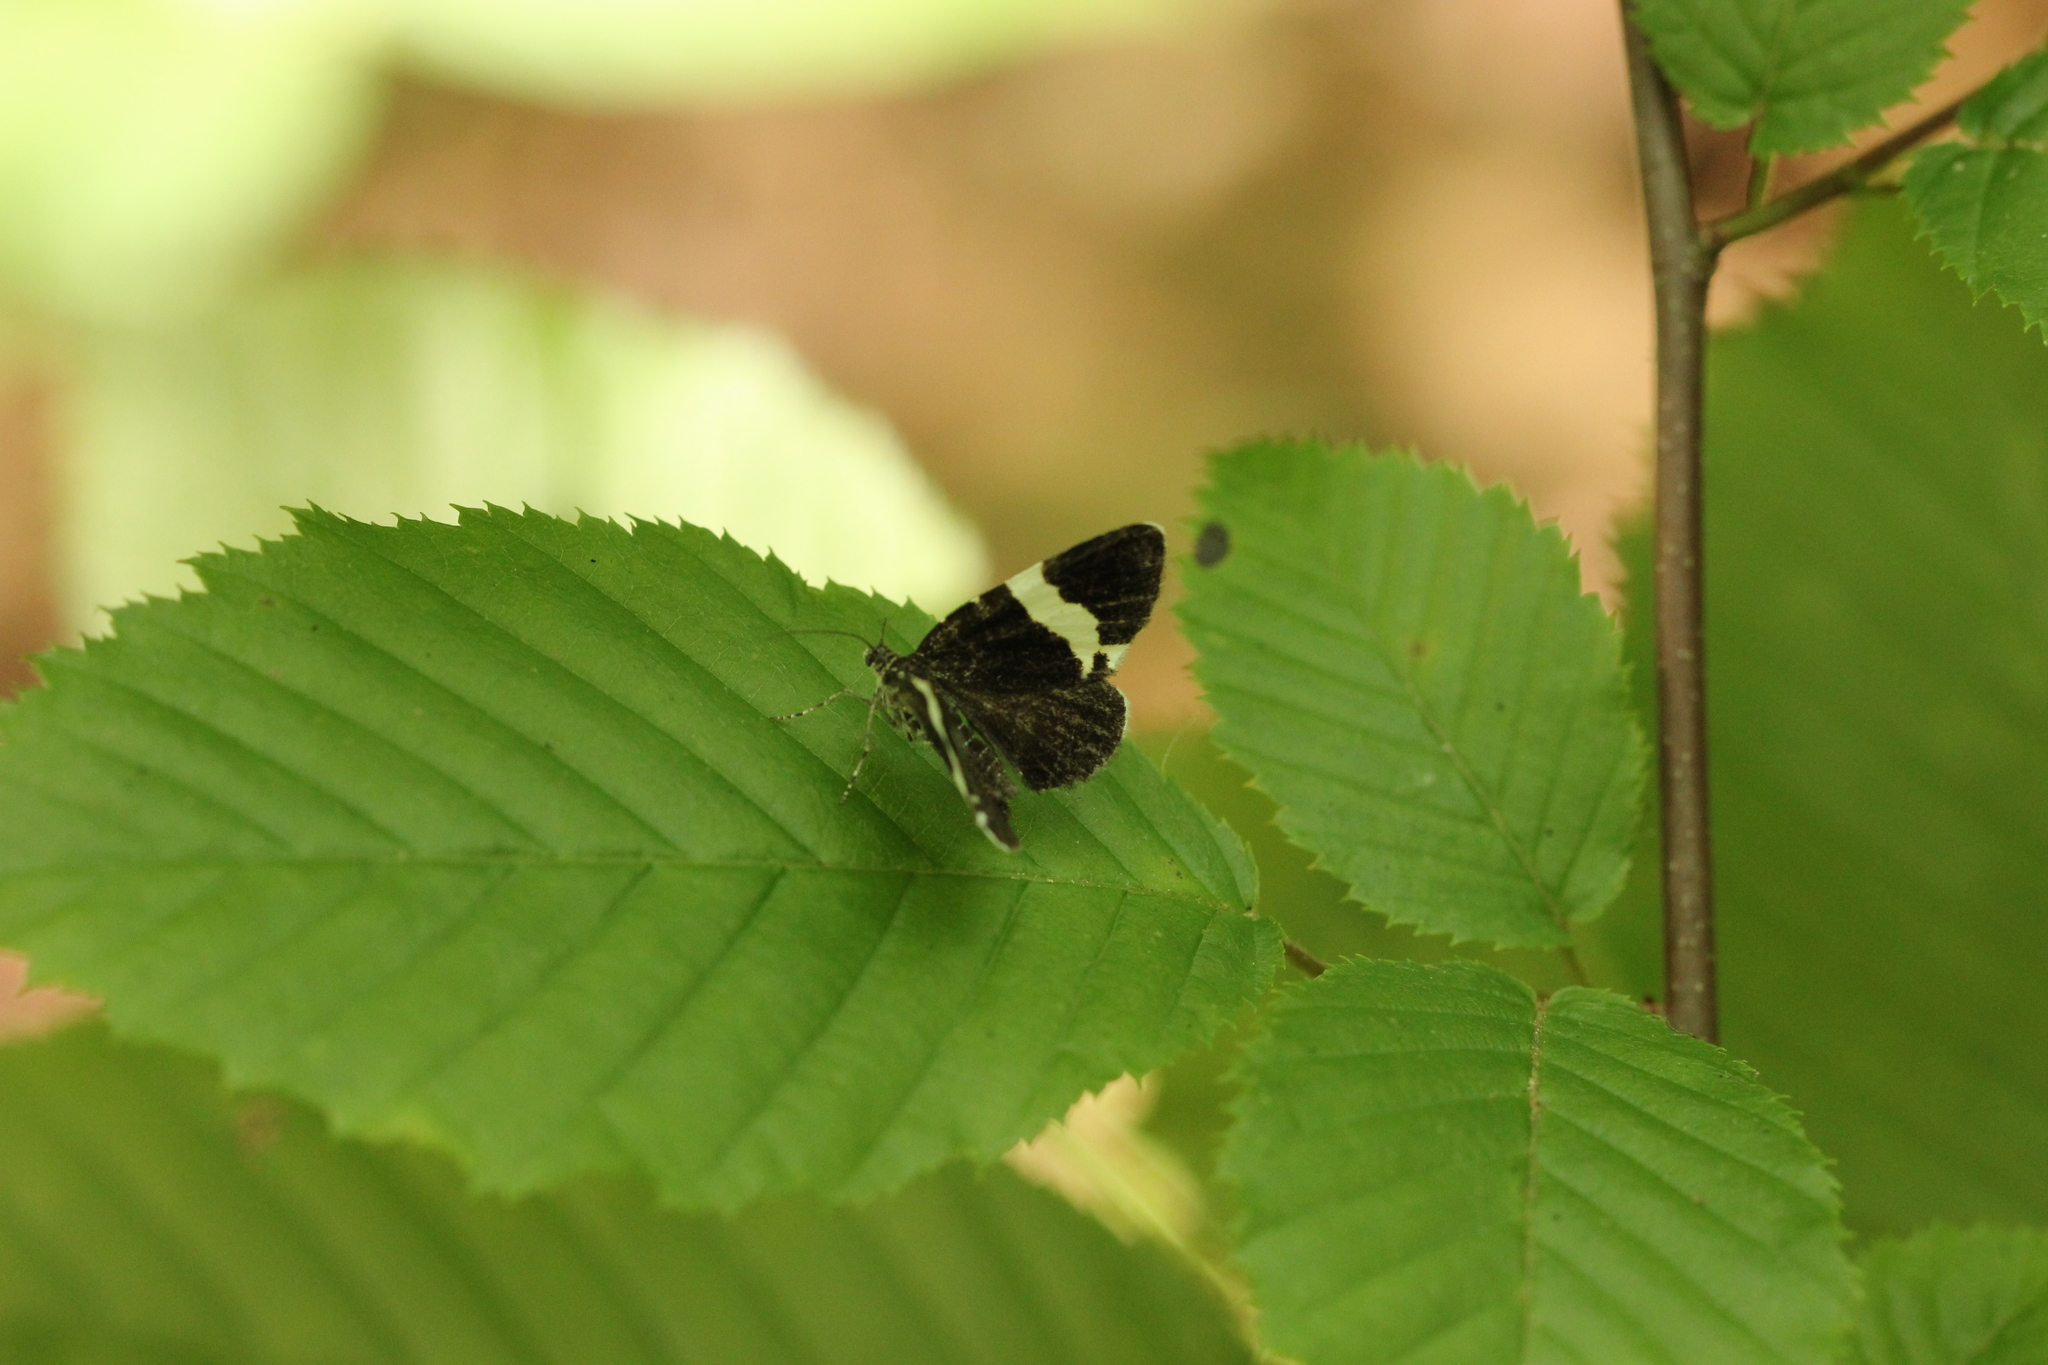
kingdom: Animalia
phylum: Arthropoda
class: Insecta
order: Lepidoptera
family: Geometridae
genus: Trichodezia
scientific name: Trichodezia albovittata
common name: White striped black
